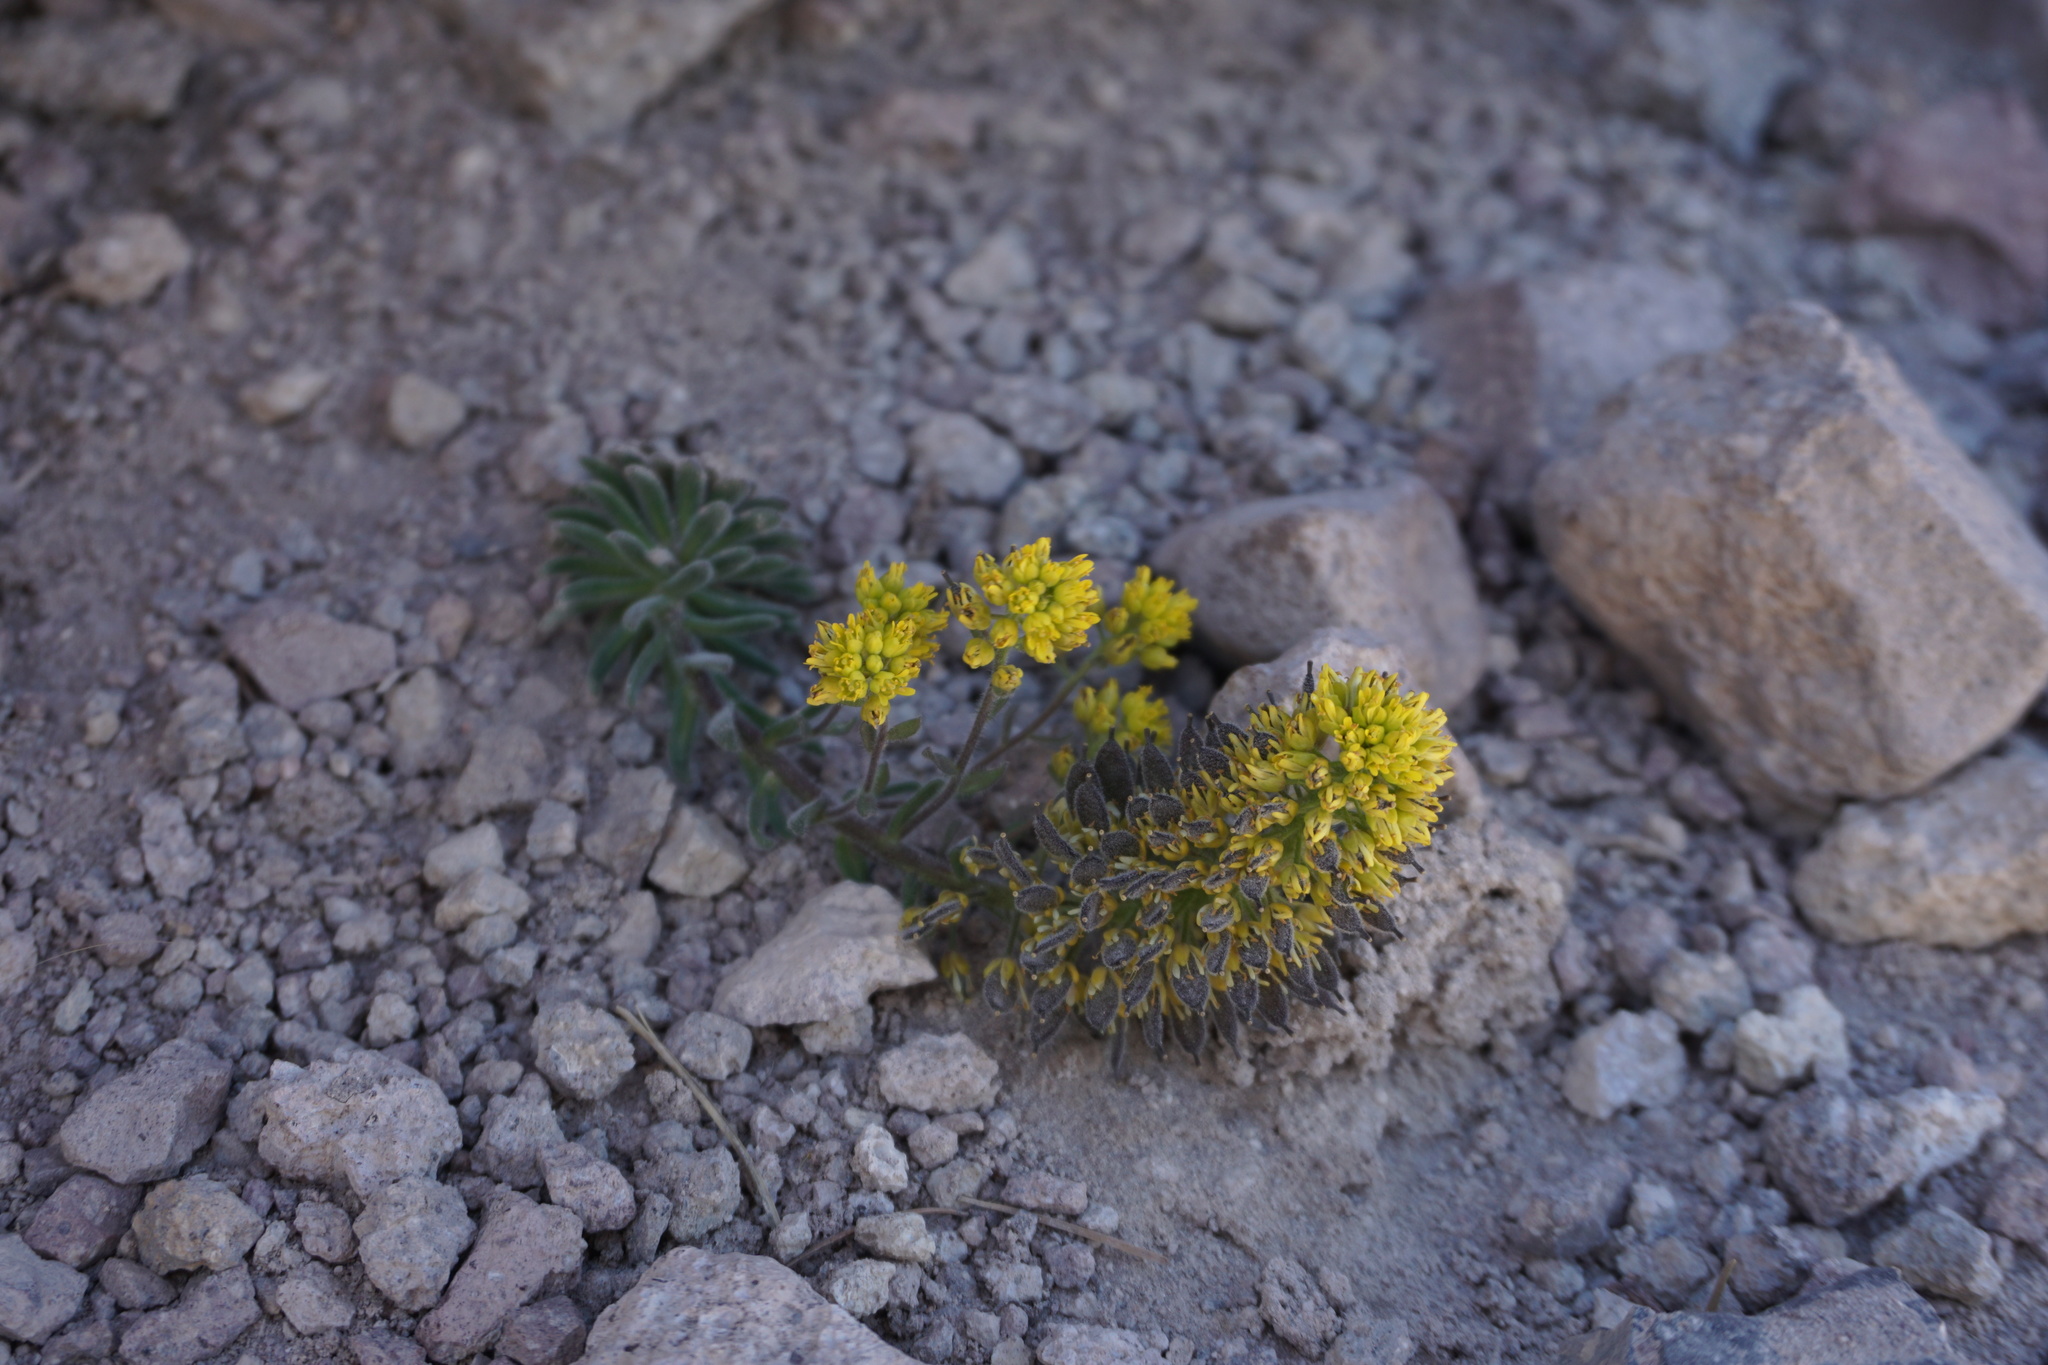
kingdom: Plantae
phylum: Tracheophyta
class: Magnoliopsida
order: Brassicales
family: Brassicaceae
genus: Draba
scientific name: Draba aureola
